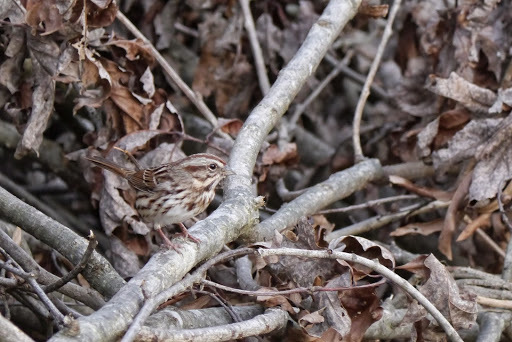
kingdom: Animalia
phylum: Chordata
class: Aves
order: Passeriformes
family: Passerellidae
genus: Melospiza
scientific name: Melospiza melodia
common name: Song sparrow
